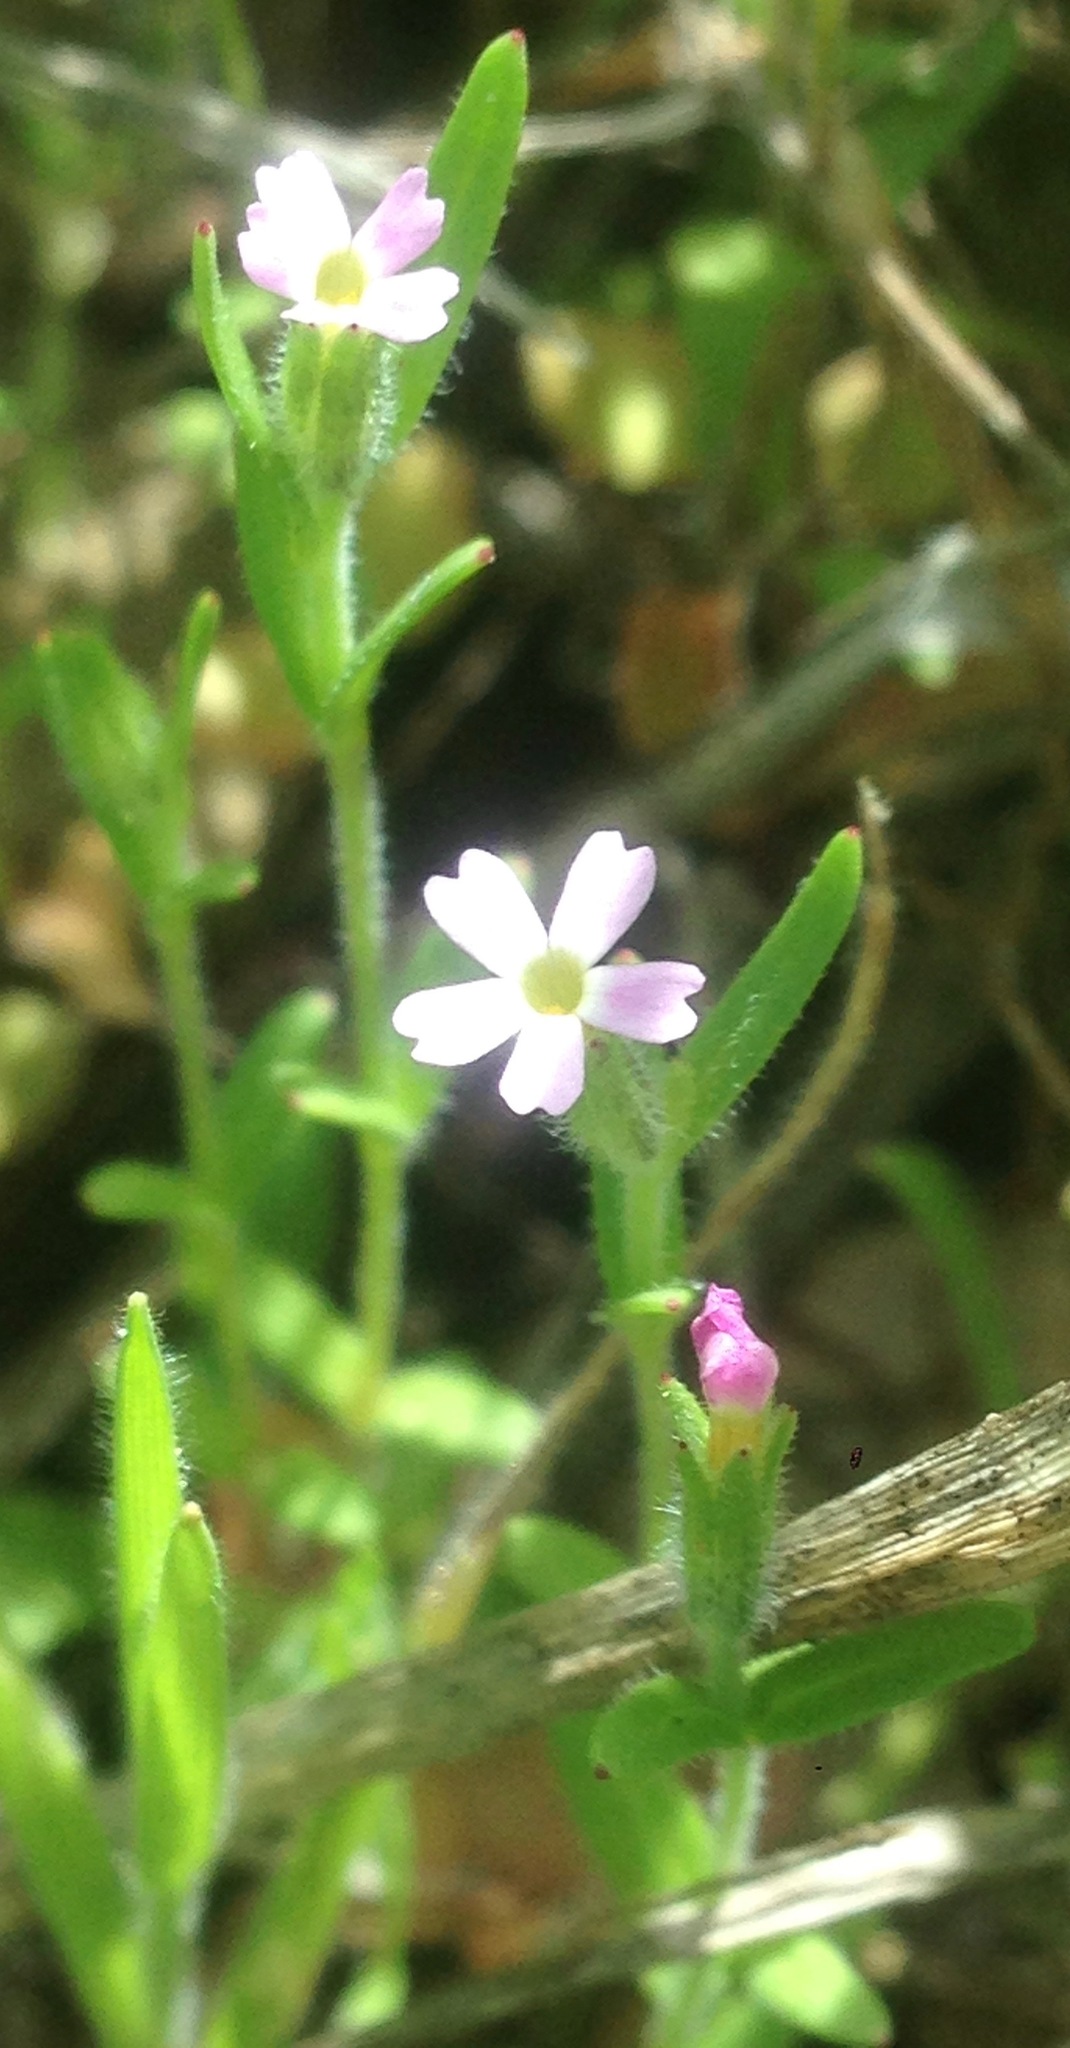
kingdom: Plantae
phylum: Tracheophyta
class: Magnoliopsida
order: Ericales
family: Polemoniaceae
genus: Phlox
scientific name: Phlox gracilis
